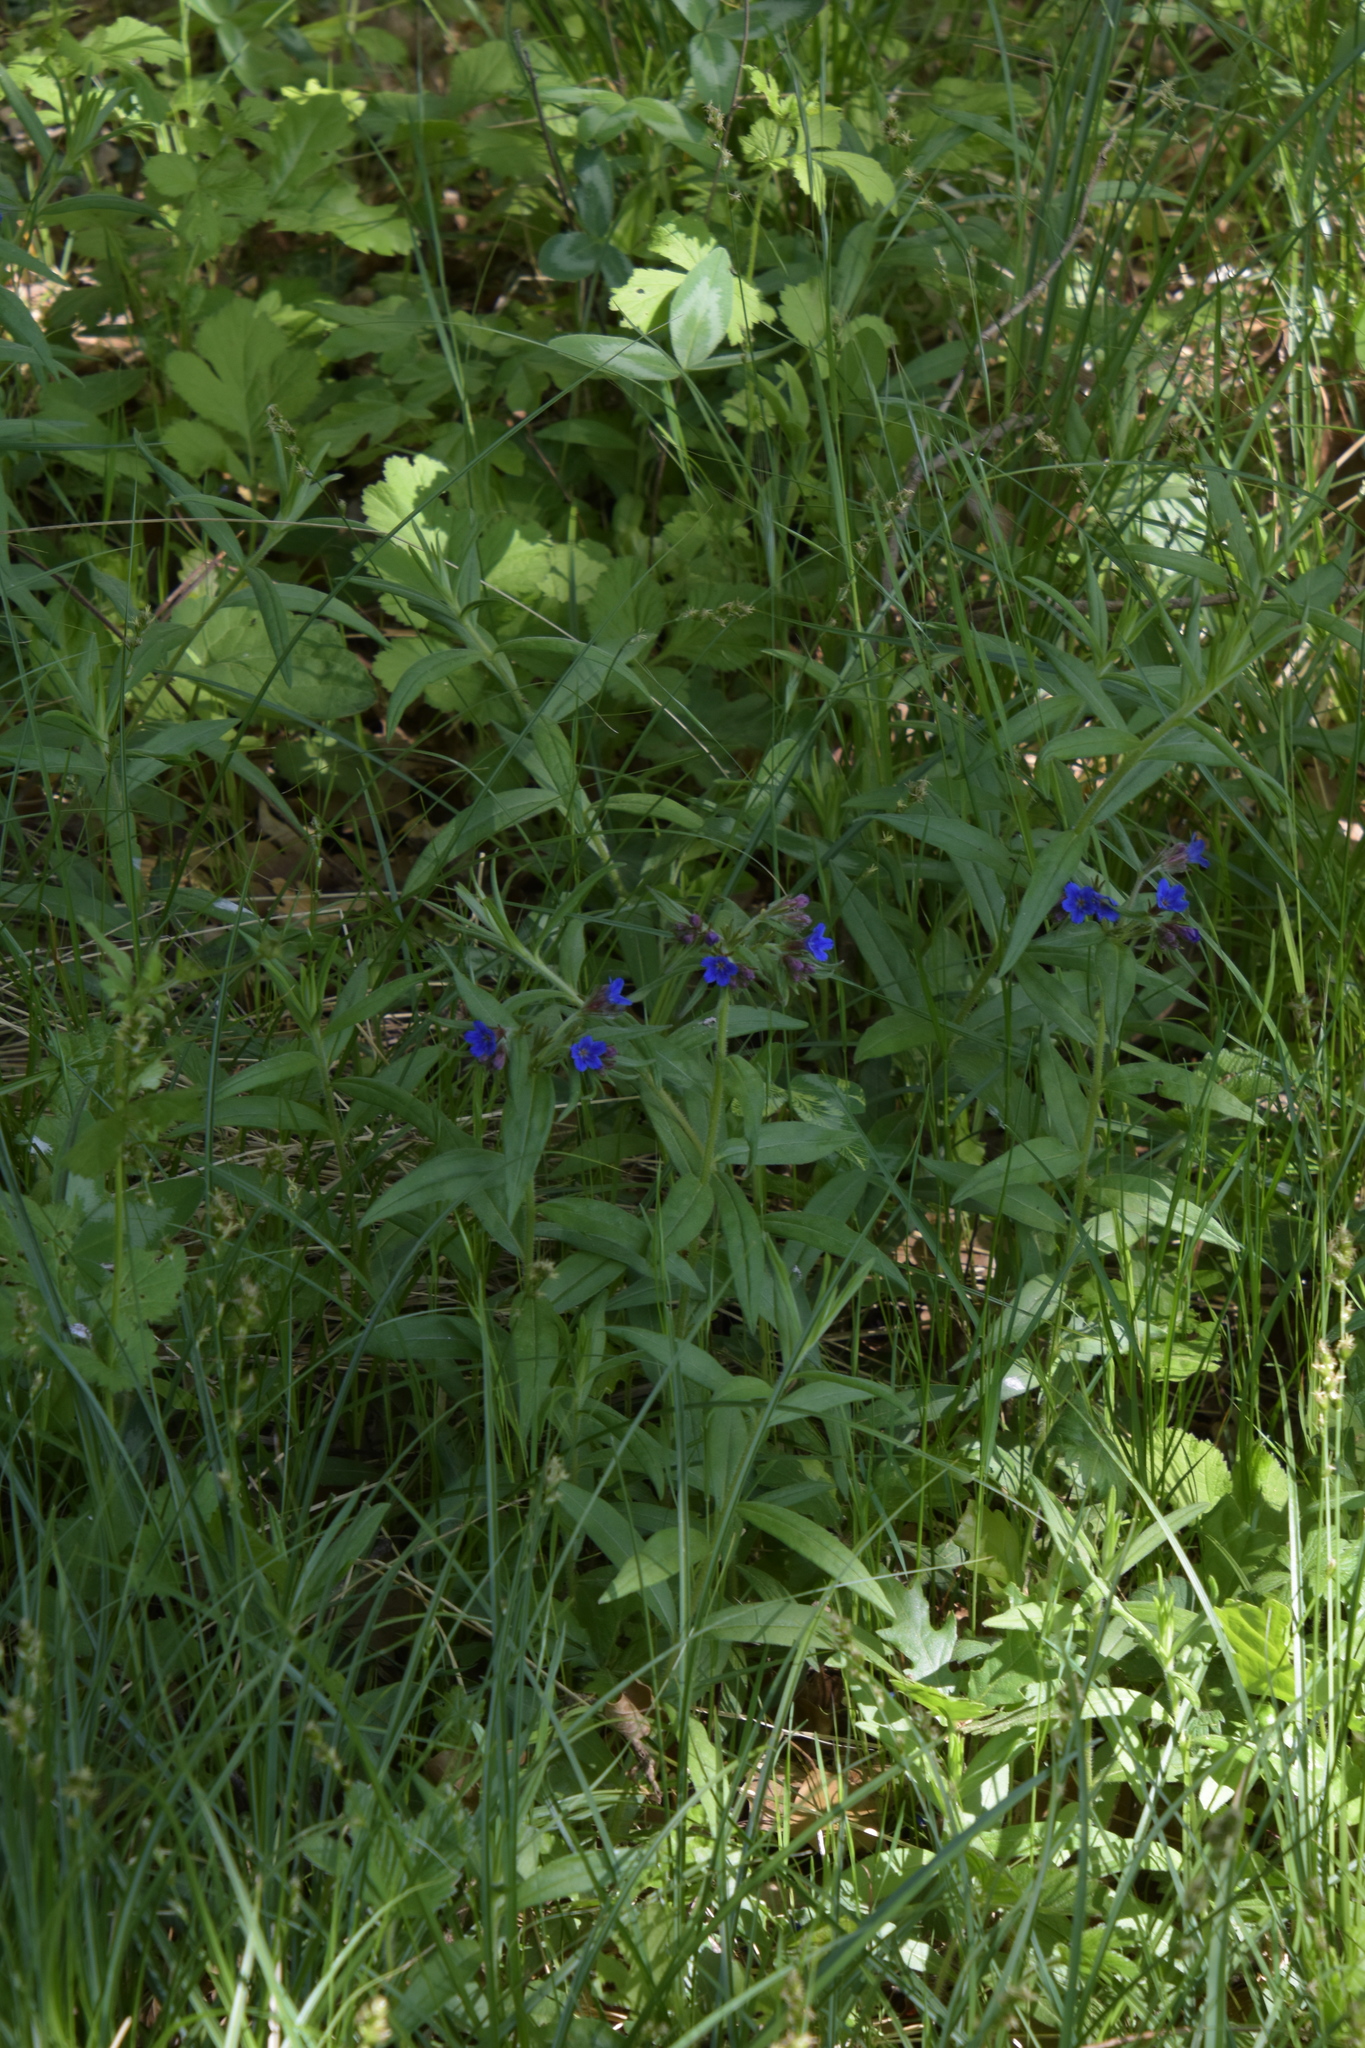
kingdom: Plantae
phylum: Tracheophyta
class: Magnoliopsida
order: Boraginales
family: Boraginaceae
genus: Aegonychon
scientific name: Aegonychon purpurocaeruleum
